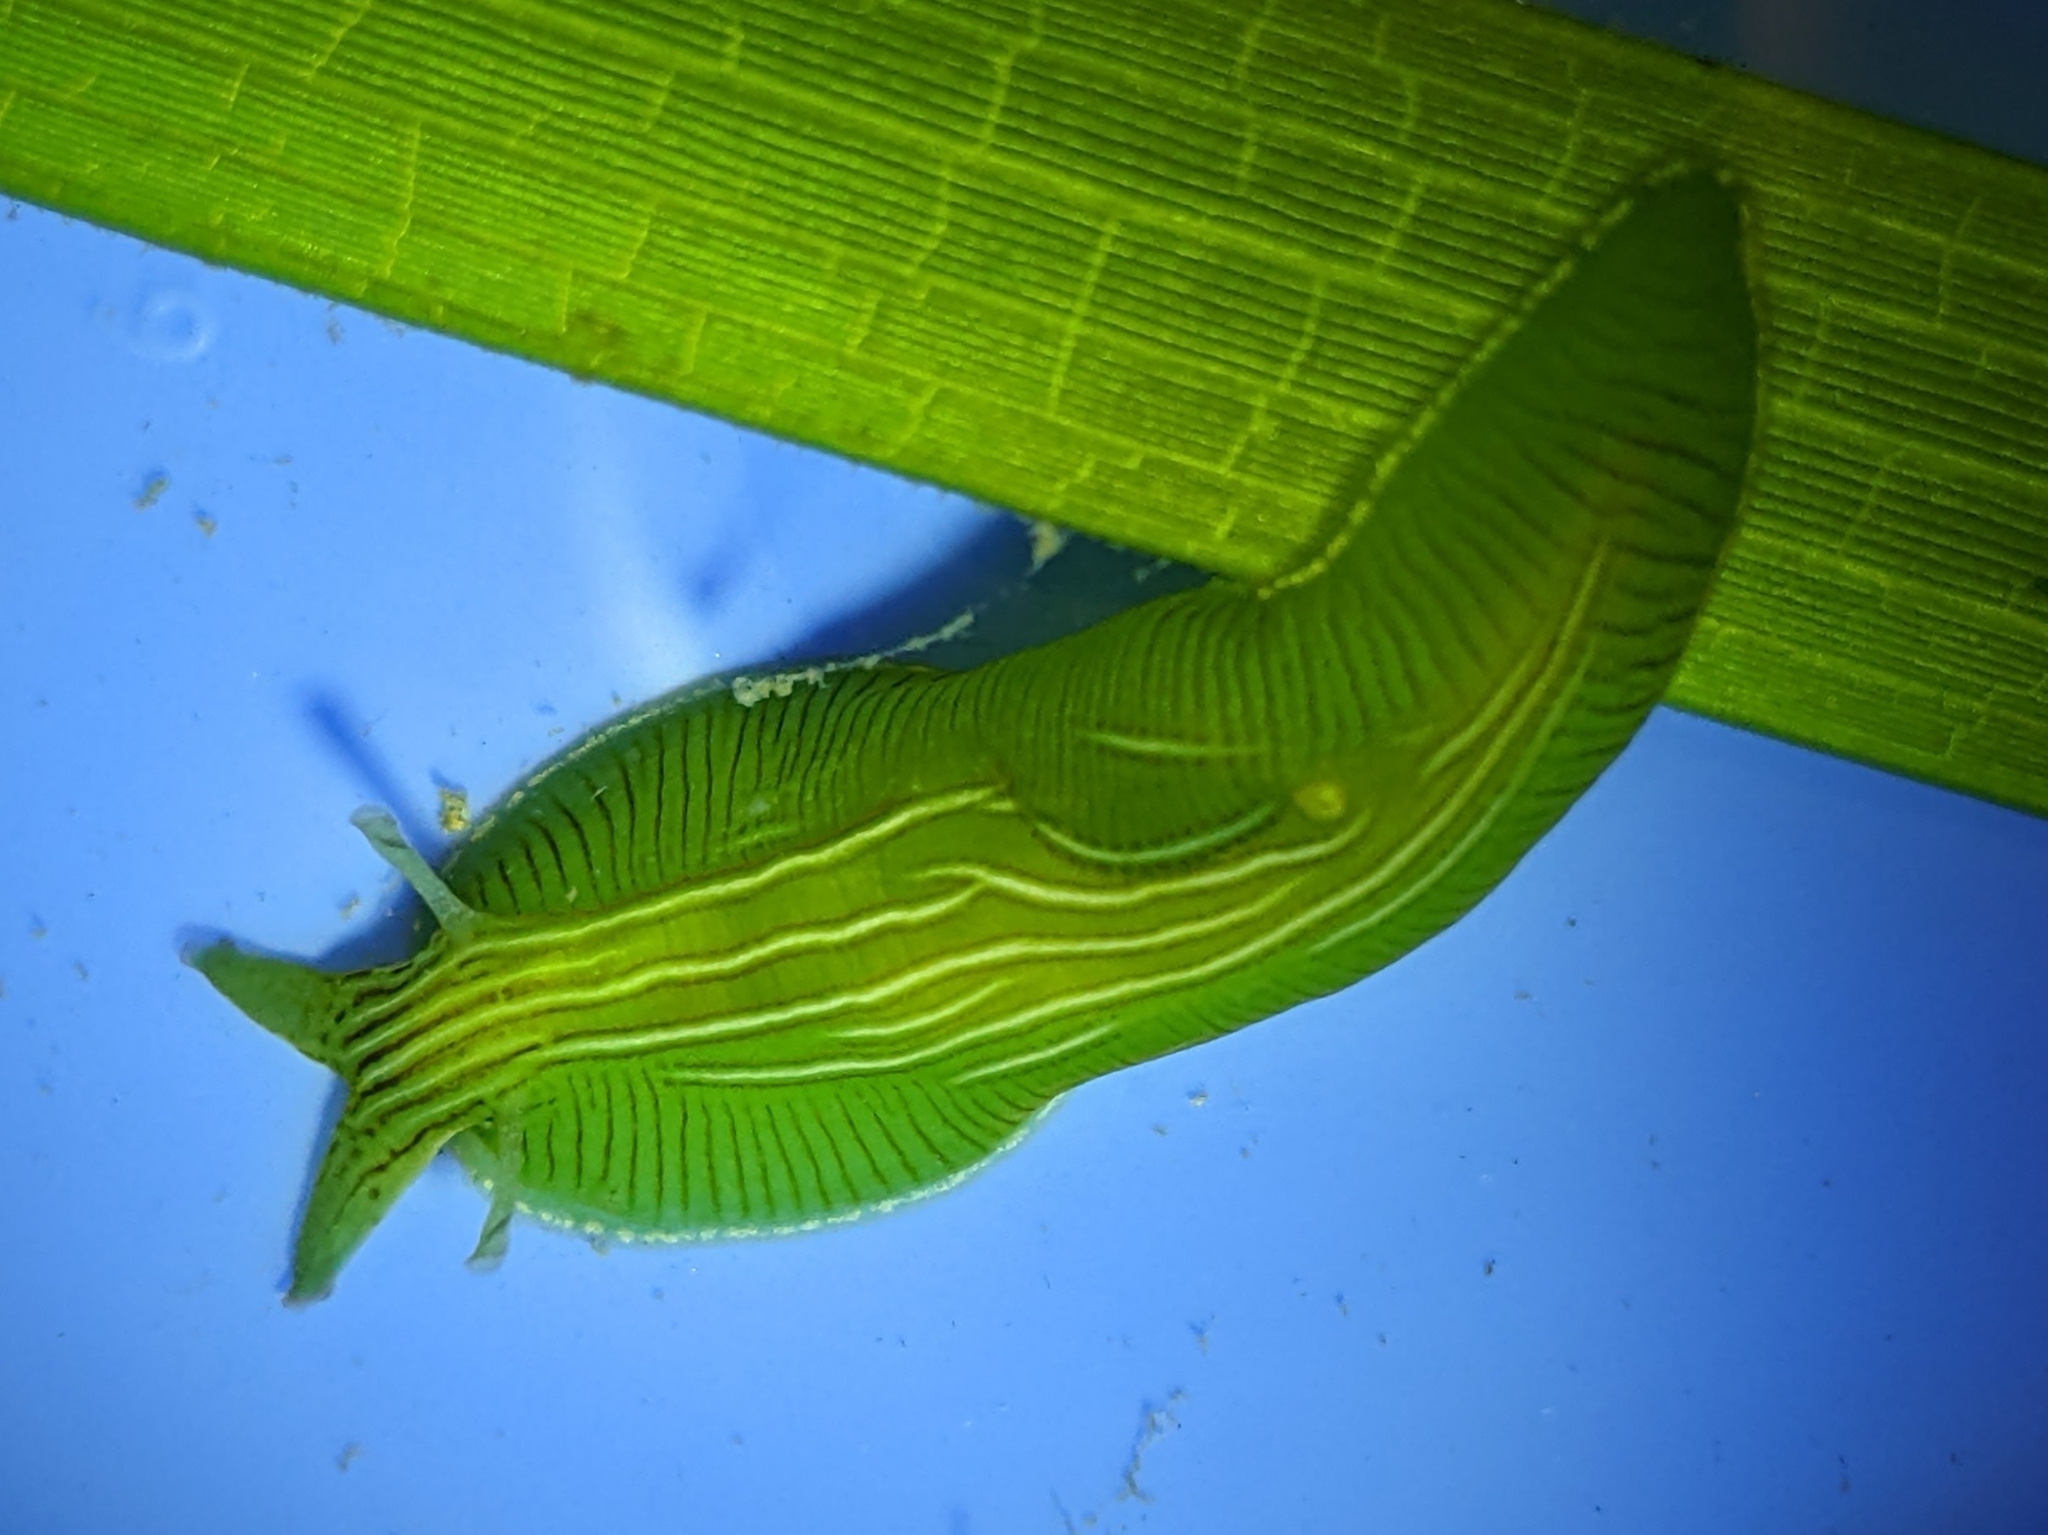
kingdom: Animalia
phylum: Mollusca
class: Gastropoda
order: Aplysiida
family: Aplysiidae
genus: Phyllaplysia
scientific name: Phyllaplysia taylori
